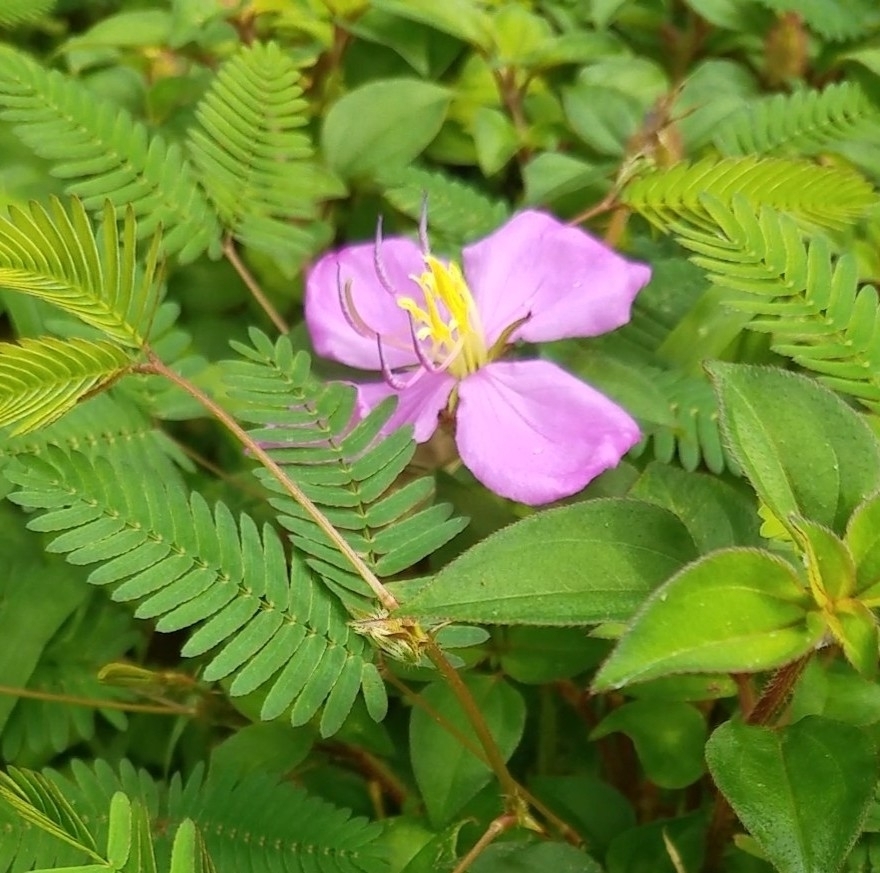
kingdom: Plantae
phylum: Tracheophyta
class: Magnoliopsida
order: Myrtales
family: Melastomataceae
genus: Heterotis
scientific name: Heterotis rotundifolia
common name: Pinklady
